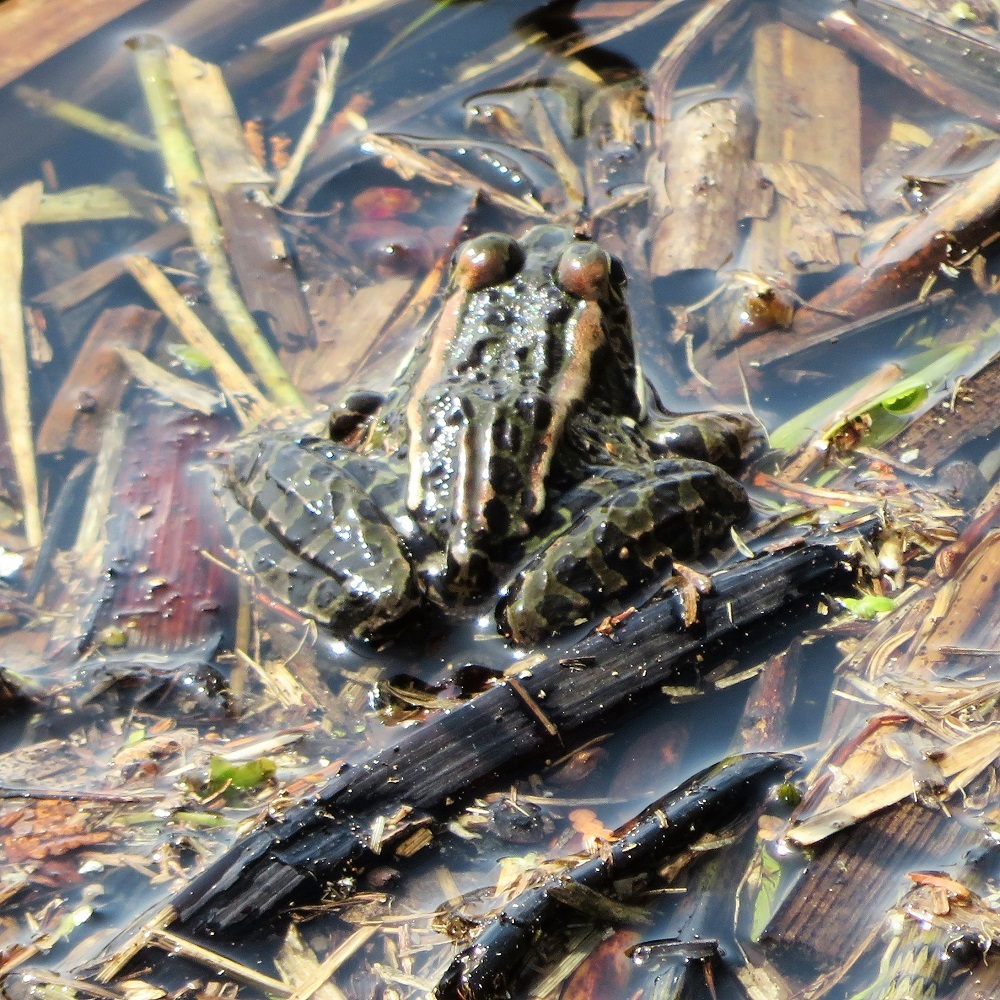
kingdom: Animalia
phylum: Chordata
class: Amphibia
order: Anura
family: Ranidae
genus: Lithobates
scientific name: Lithobates pipiens
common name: Northern leopard frog
